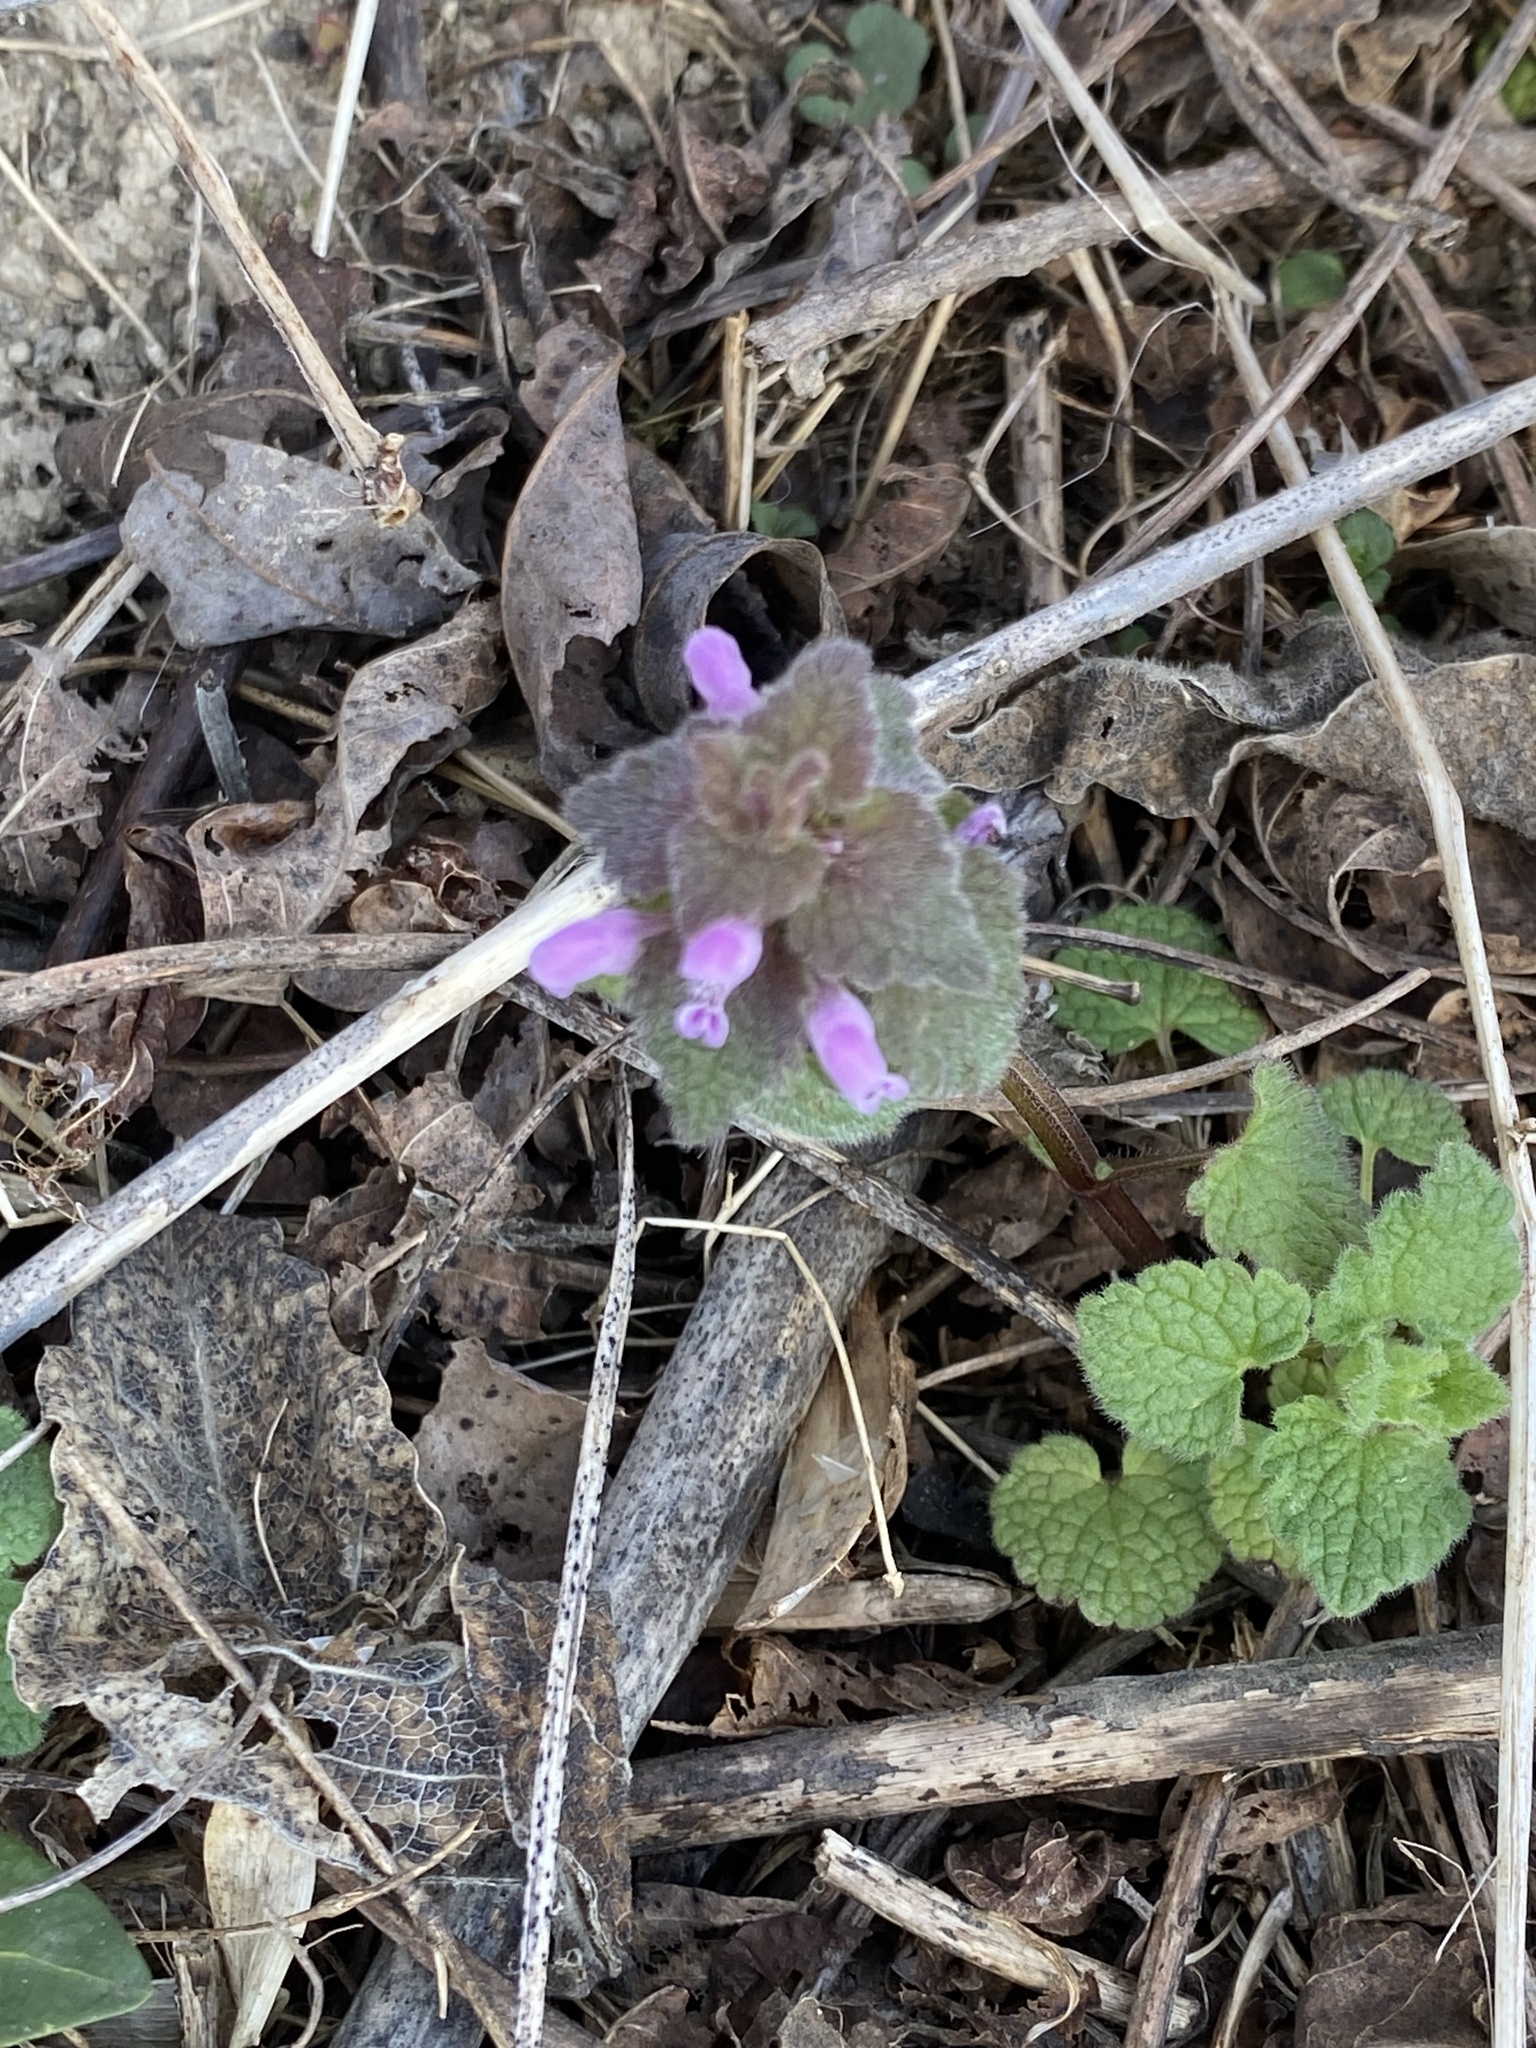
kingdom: Plantae
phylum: Tracheophyta
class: Magnoliopsida
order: Lamiales
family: Lamiaceae
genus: Lamium
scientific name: Lamium purpureum
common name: Red dead-nettle
